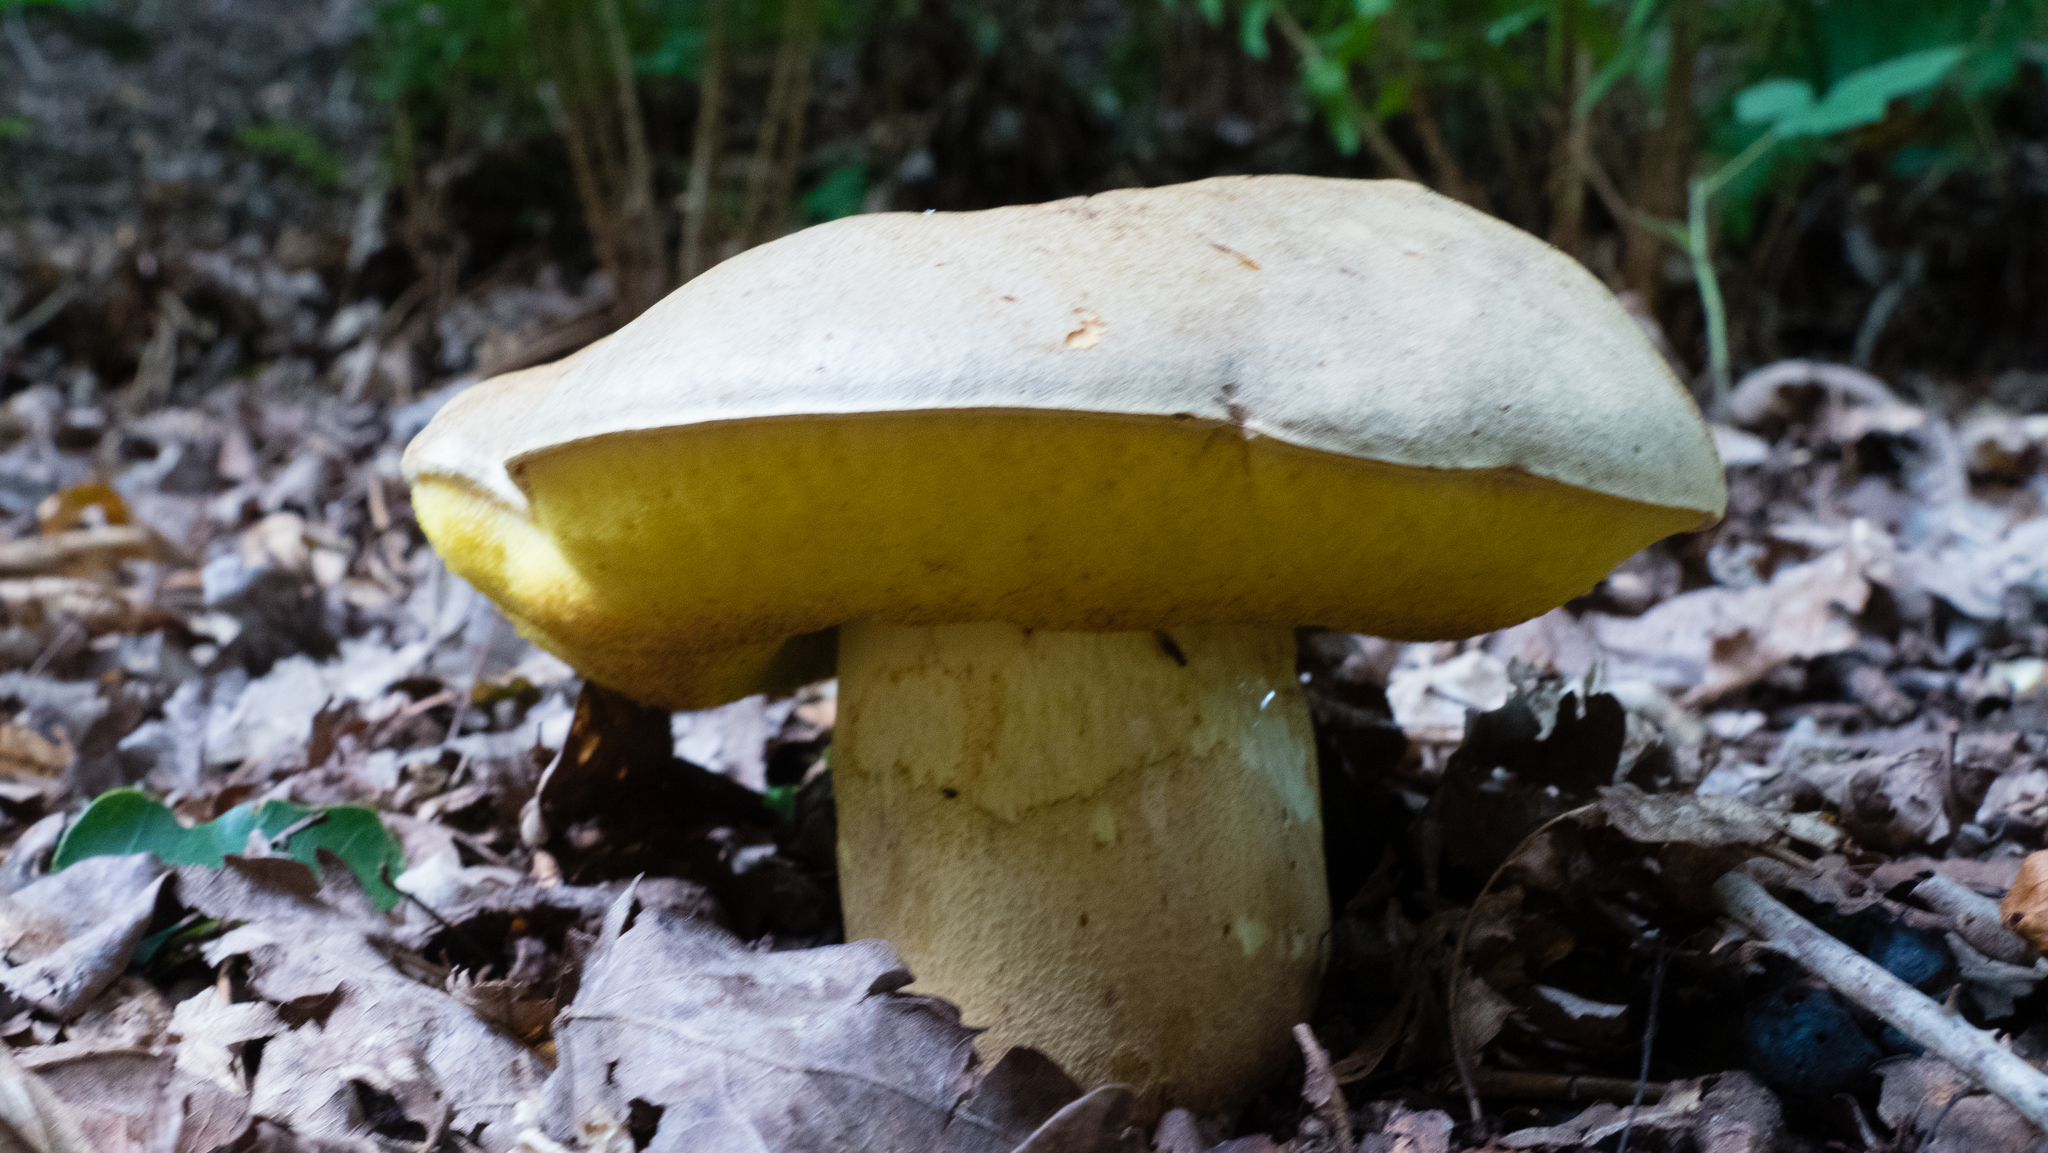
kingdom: Fungi
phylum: Basidiomycota
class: Agaricomycetes
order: Boletales
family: Boletaceae
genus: Hemileccinum
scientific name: Hemileccinum impolitum
